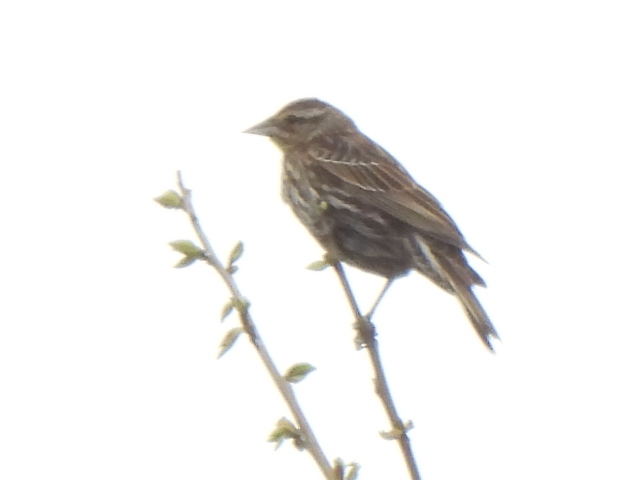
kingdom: Animalia
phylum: Chordata
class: Aves
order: Passeriformes
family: Icteridae
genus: Agelaius
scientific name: Agelaius phoeniceus
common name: Red-winged blackbird
